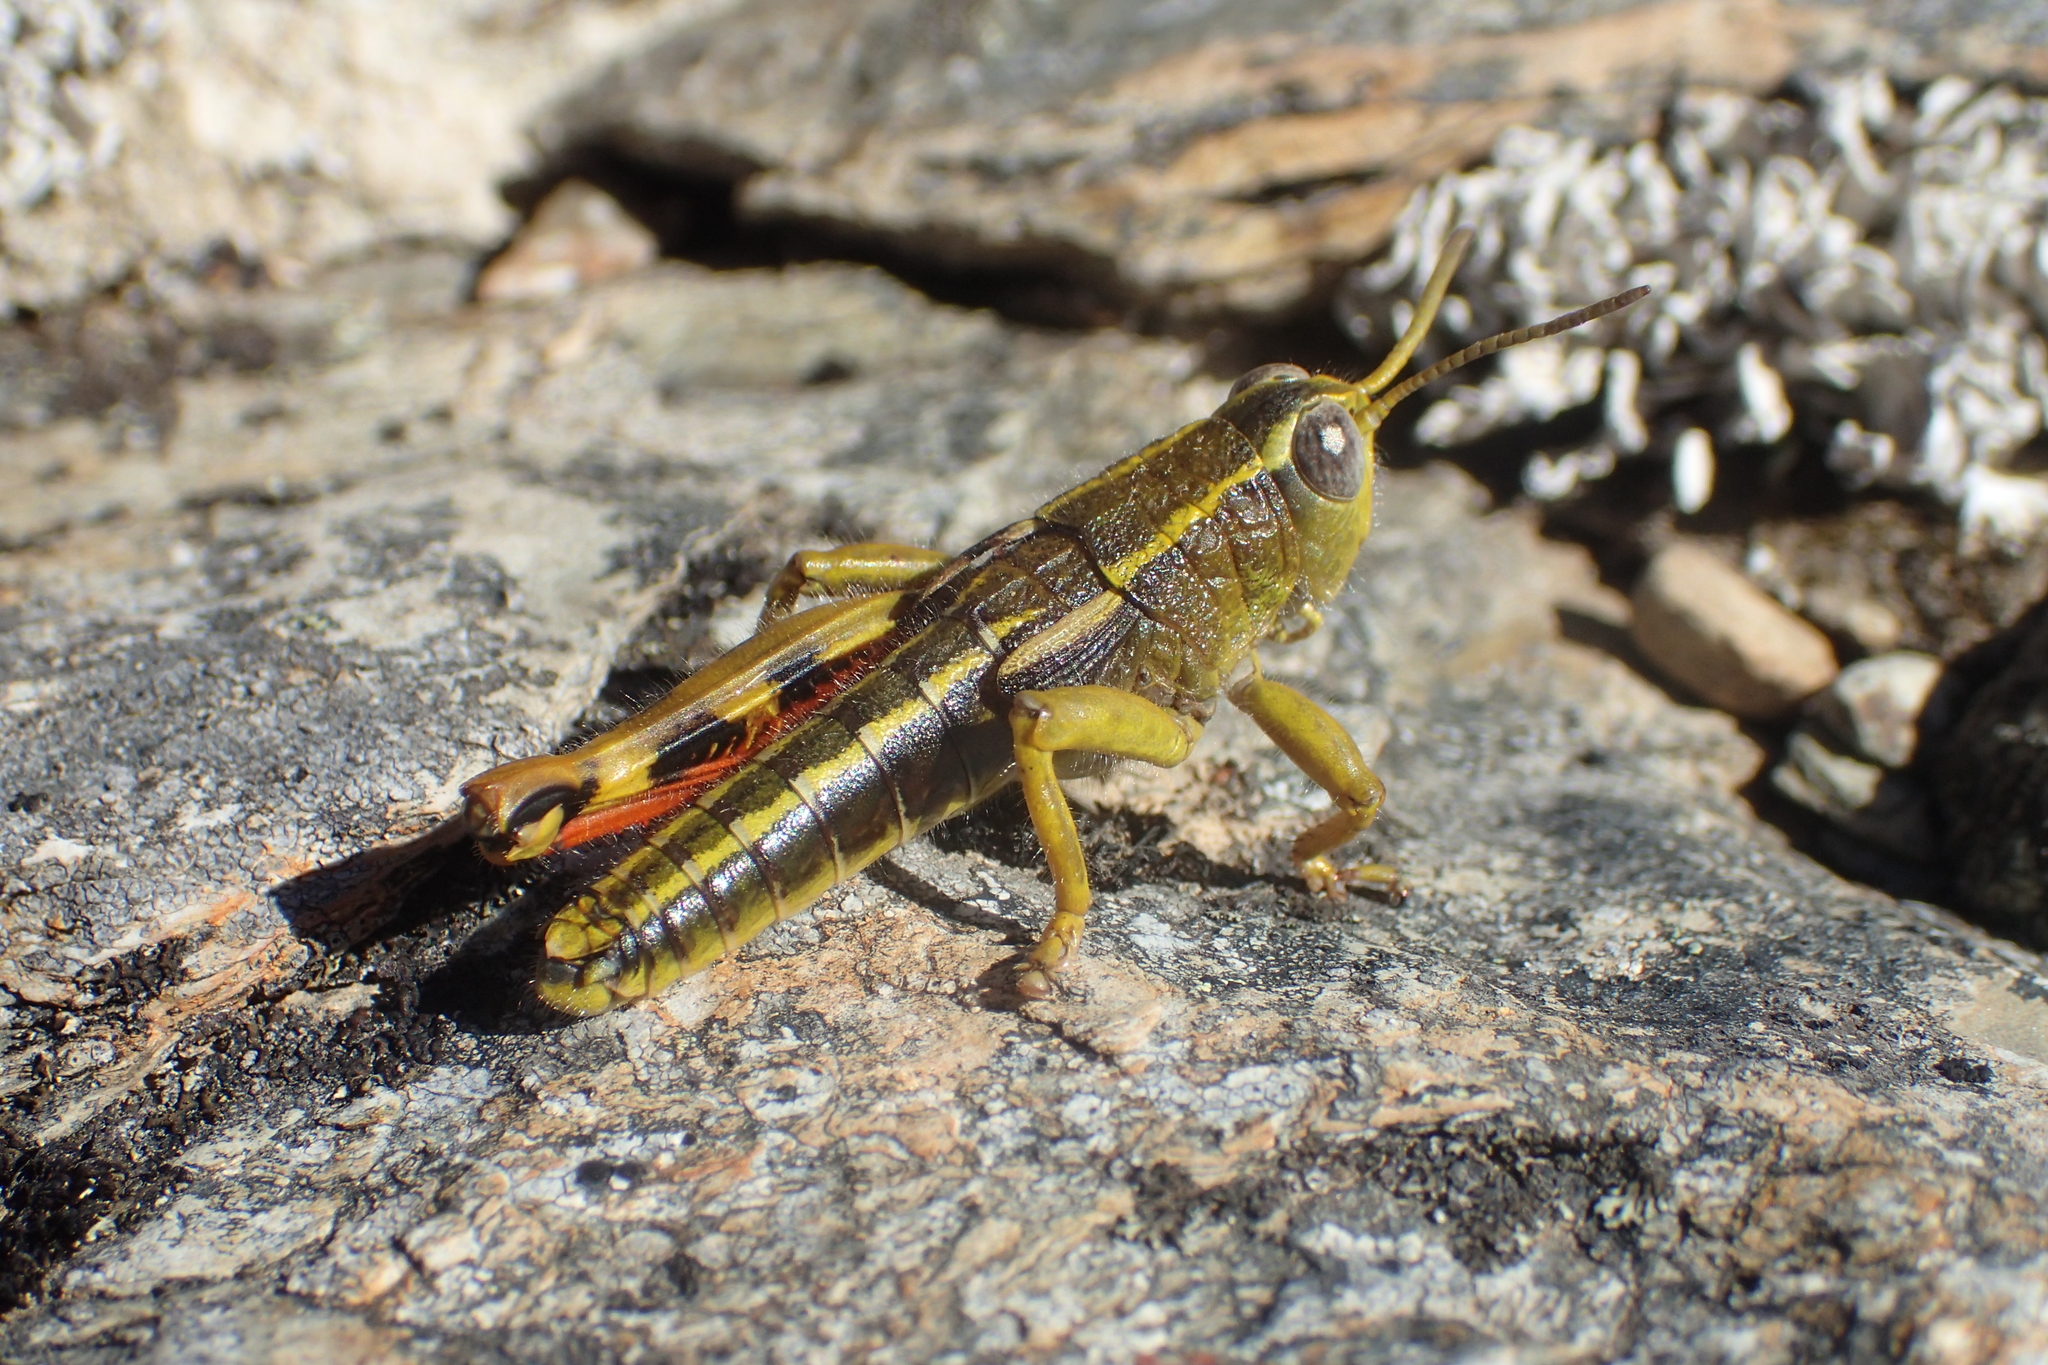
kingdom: Animalia
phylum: Arthropoda
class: Insecta
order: Orthoptera
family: Acrididae
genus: Sigaus
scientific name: Sigaus
